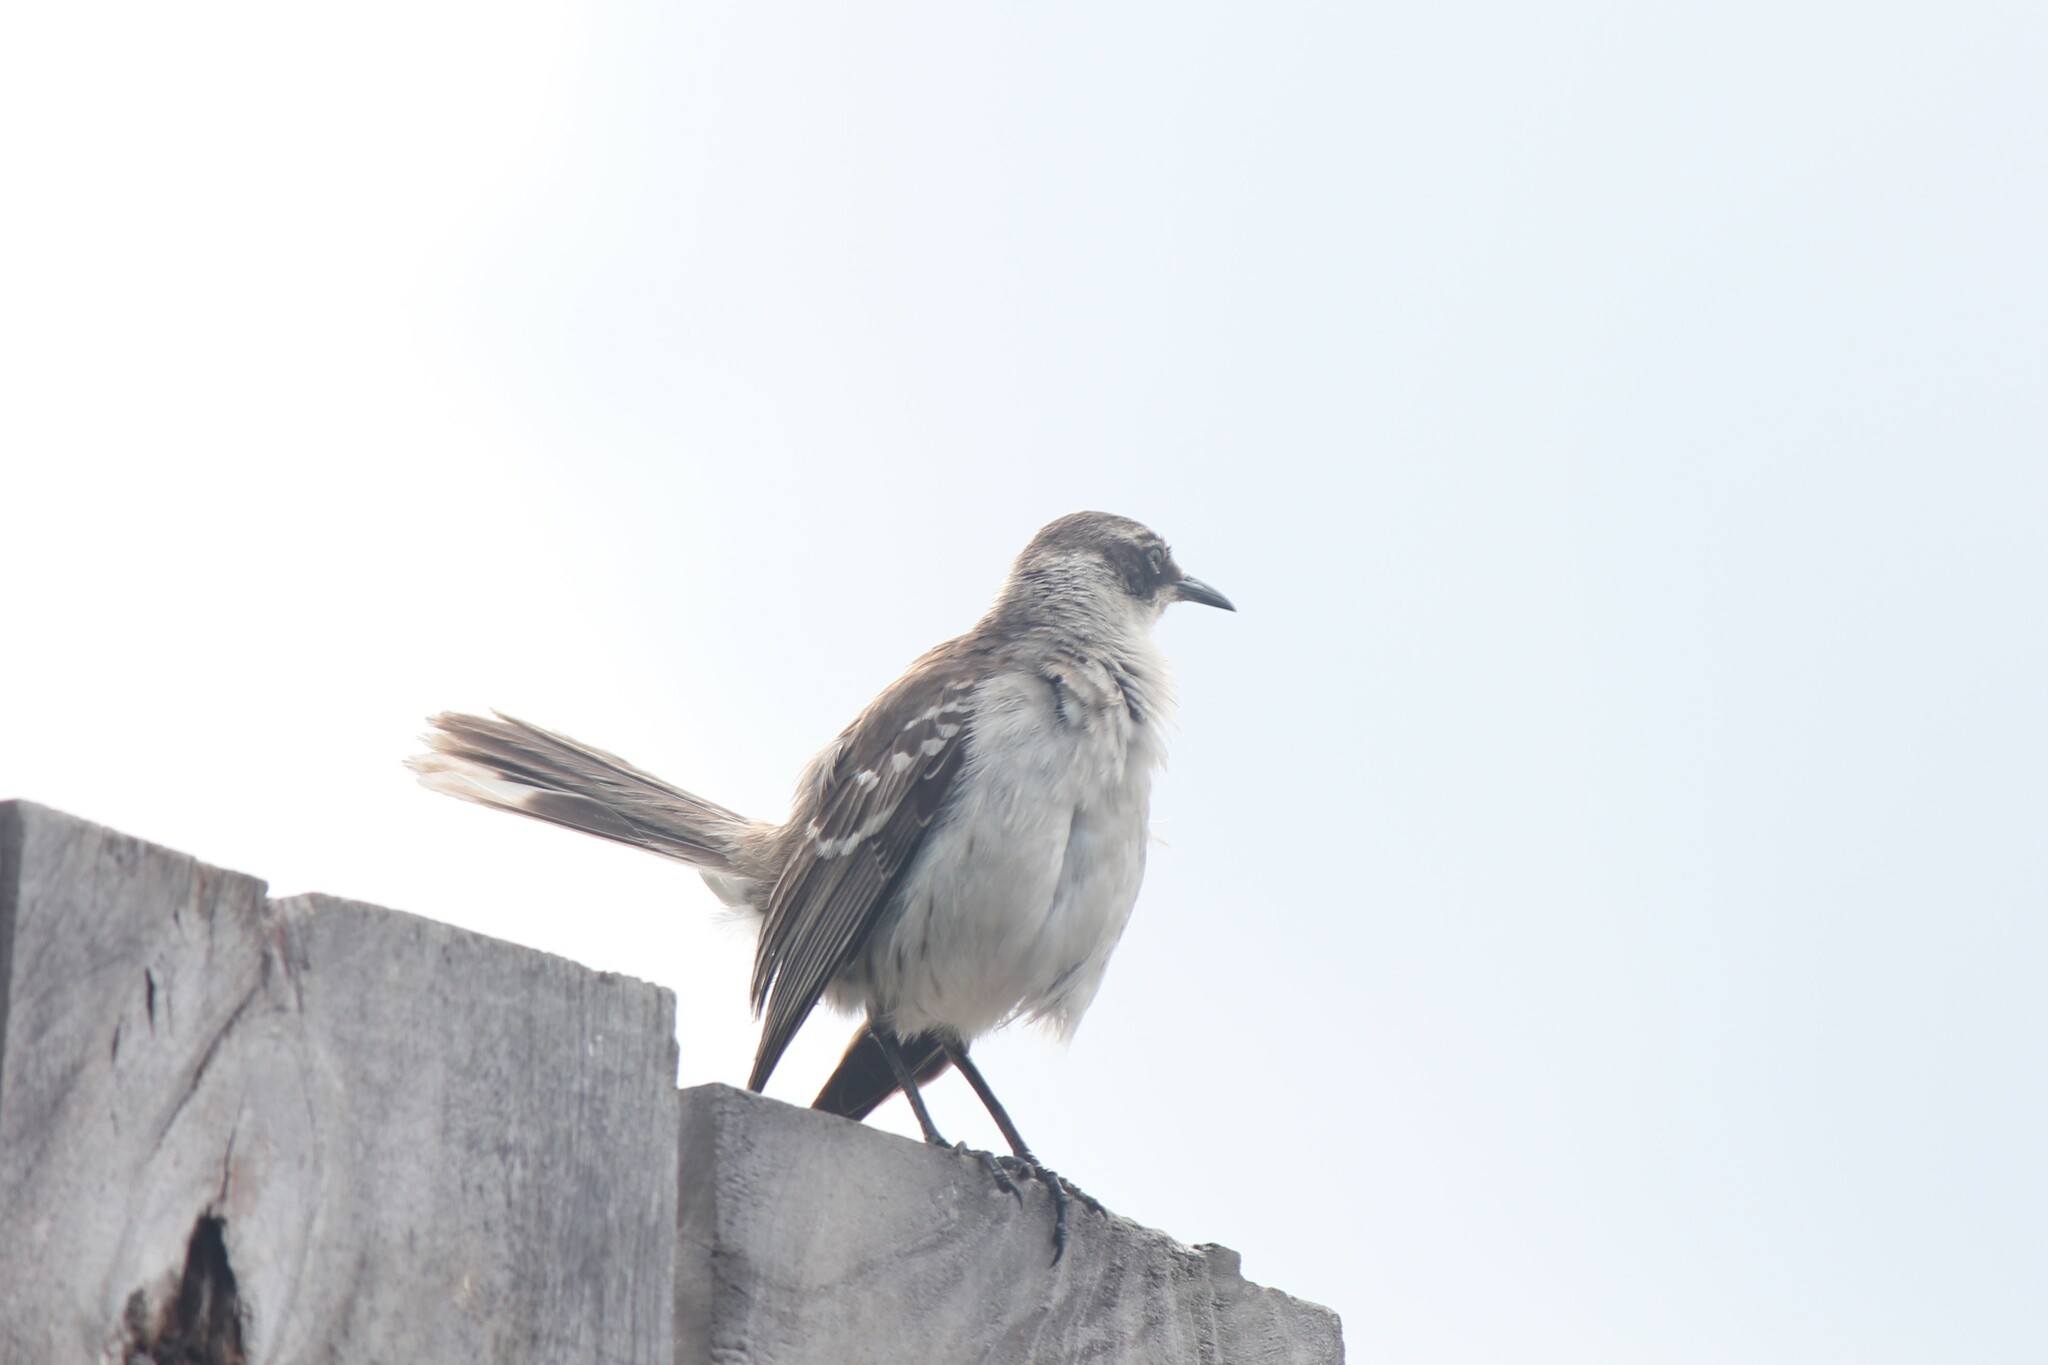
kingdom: Animalia
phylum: Chordata
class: Aves
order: Passeriformes
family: Mimidae
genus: Mimus
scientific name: Mimus parvulus
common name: Galapagos mockingbird
